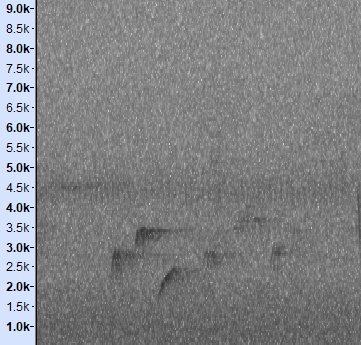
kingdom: Animalia
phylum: Chordata
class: Aves
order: Passeriformes
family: Pycnonotidae
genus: Hemixos
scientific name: Hemixos castanonotus
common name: Chestnut bulbul
